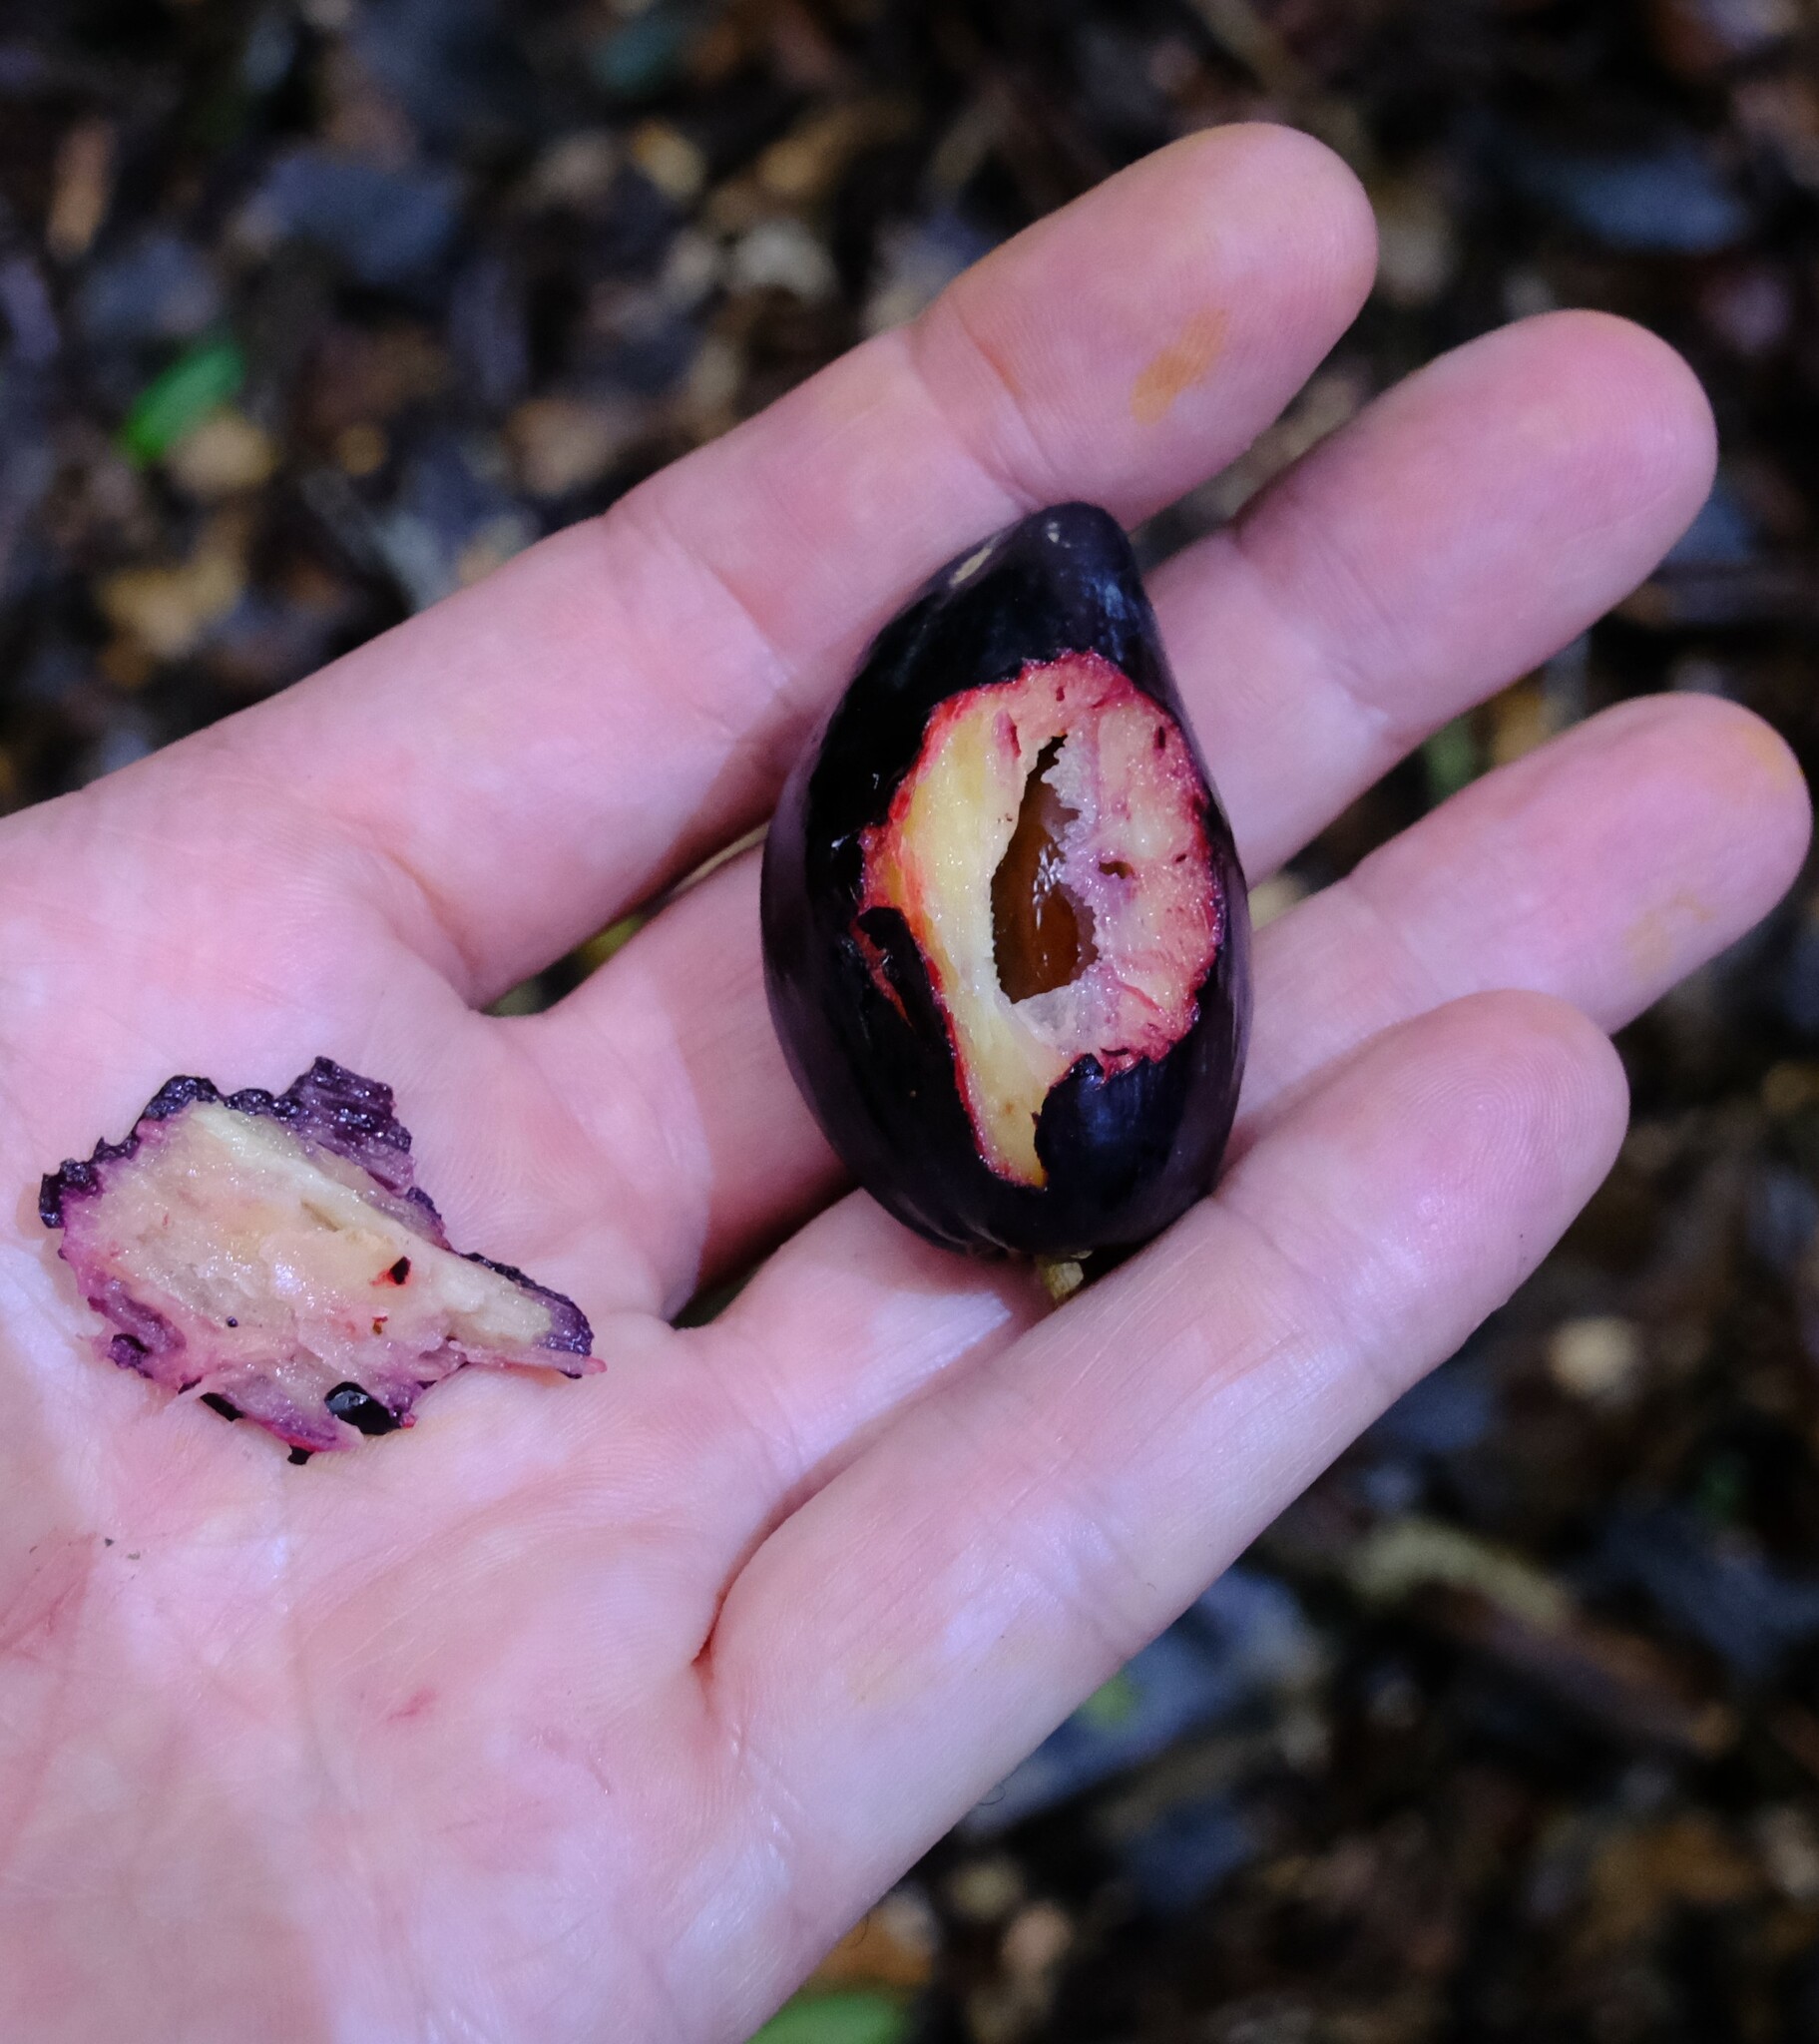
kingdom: Plantae
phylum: Tracheophyta
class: Magnoliopsida
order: Ericales
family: Sapotaceae
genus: Planchonella
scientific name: Planchonella australis
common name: Black apple
